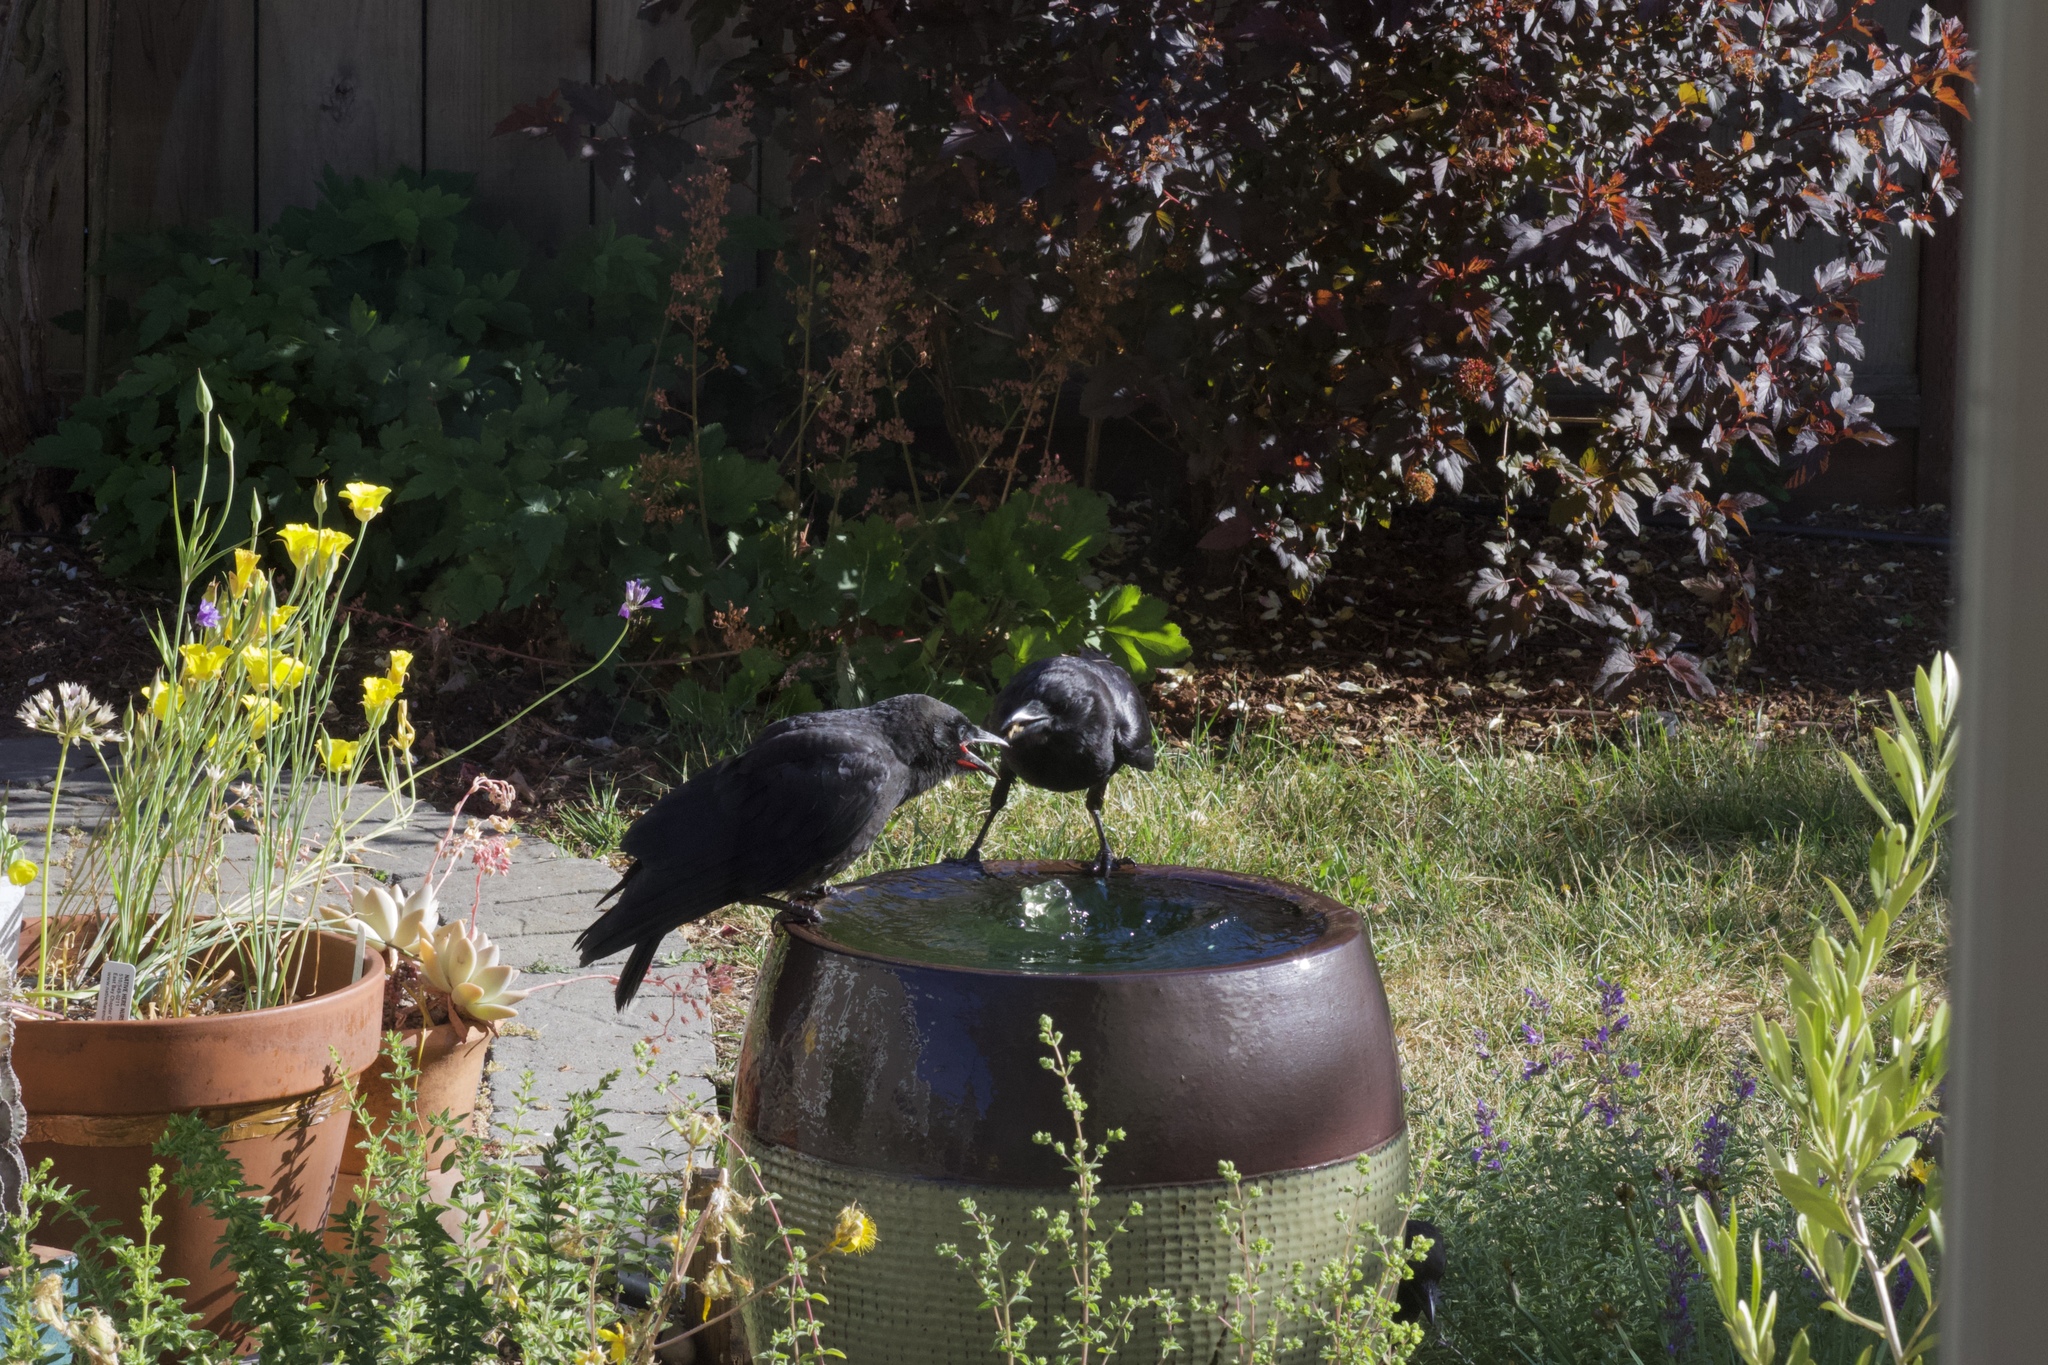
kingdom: Animalia
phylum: Chordata
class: Aves
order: Passeriformes
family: Corvidae
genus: Corvus
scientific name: Corvus brachyrhynchos
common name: American crow
